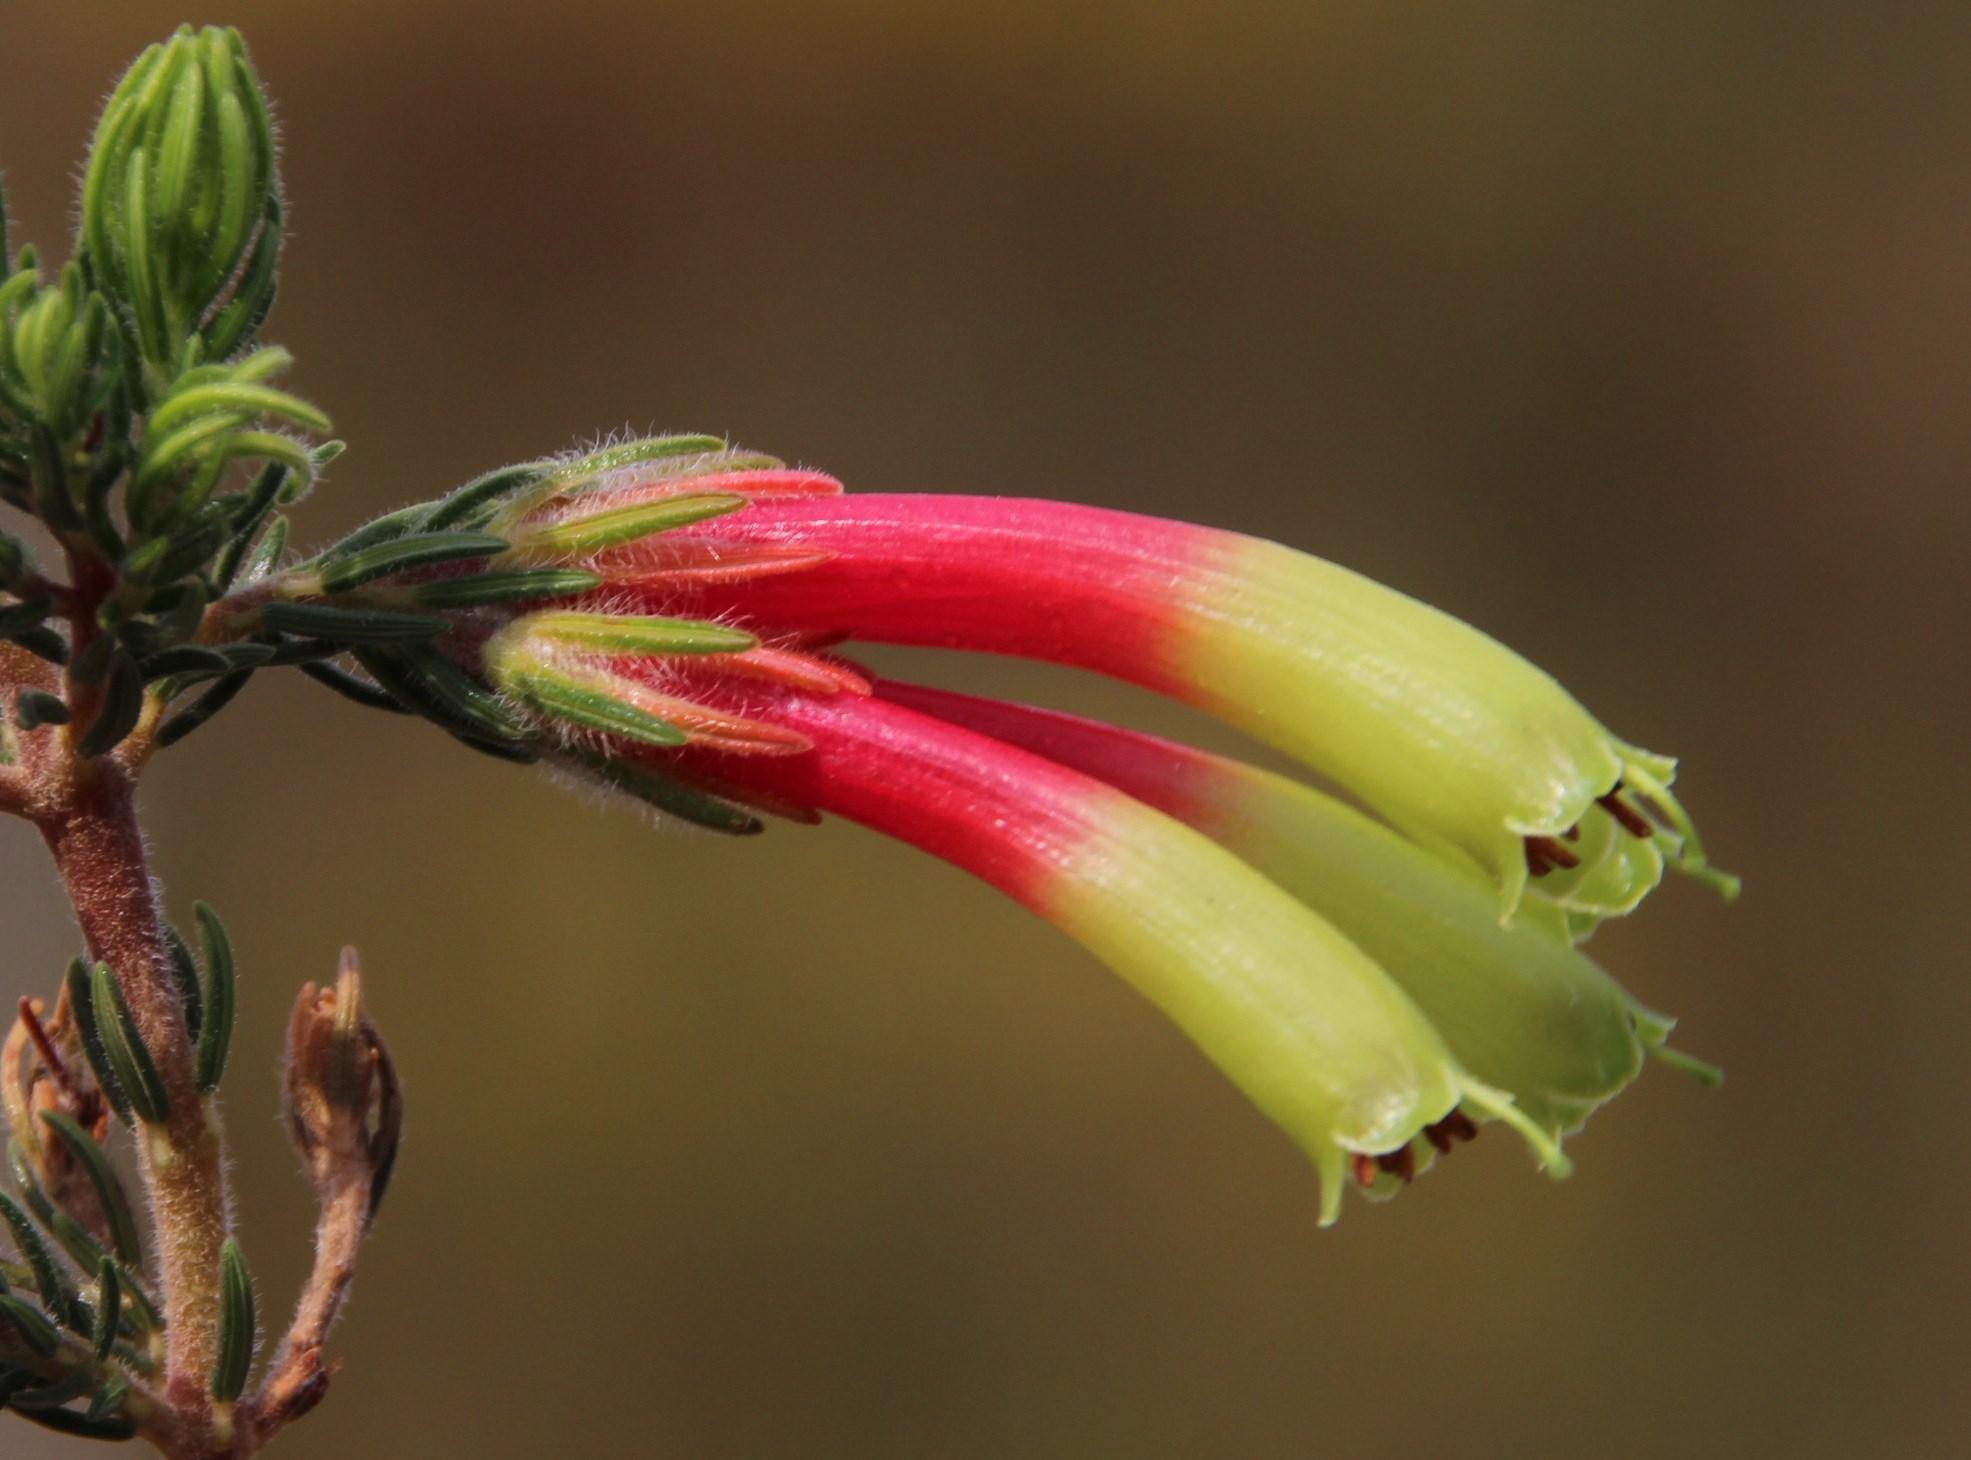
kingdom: Plantae
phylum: Tracheophyta
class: Magnoliopsida
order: Ericales
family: Ericaceae
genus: Erica
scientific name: Erica unicolor
